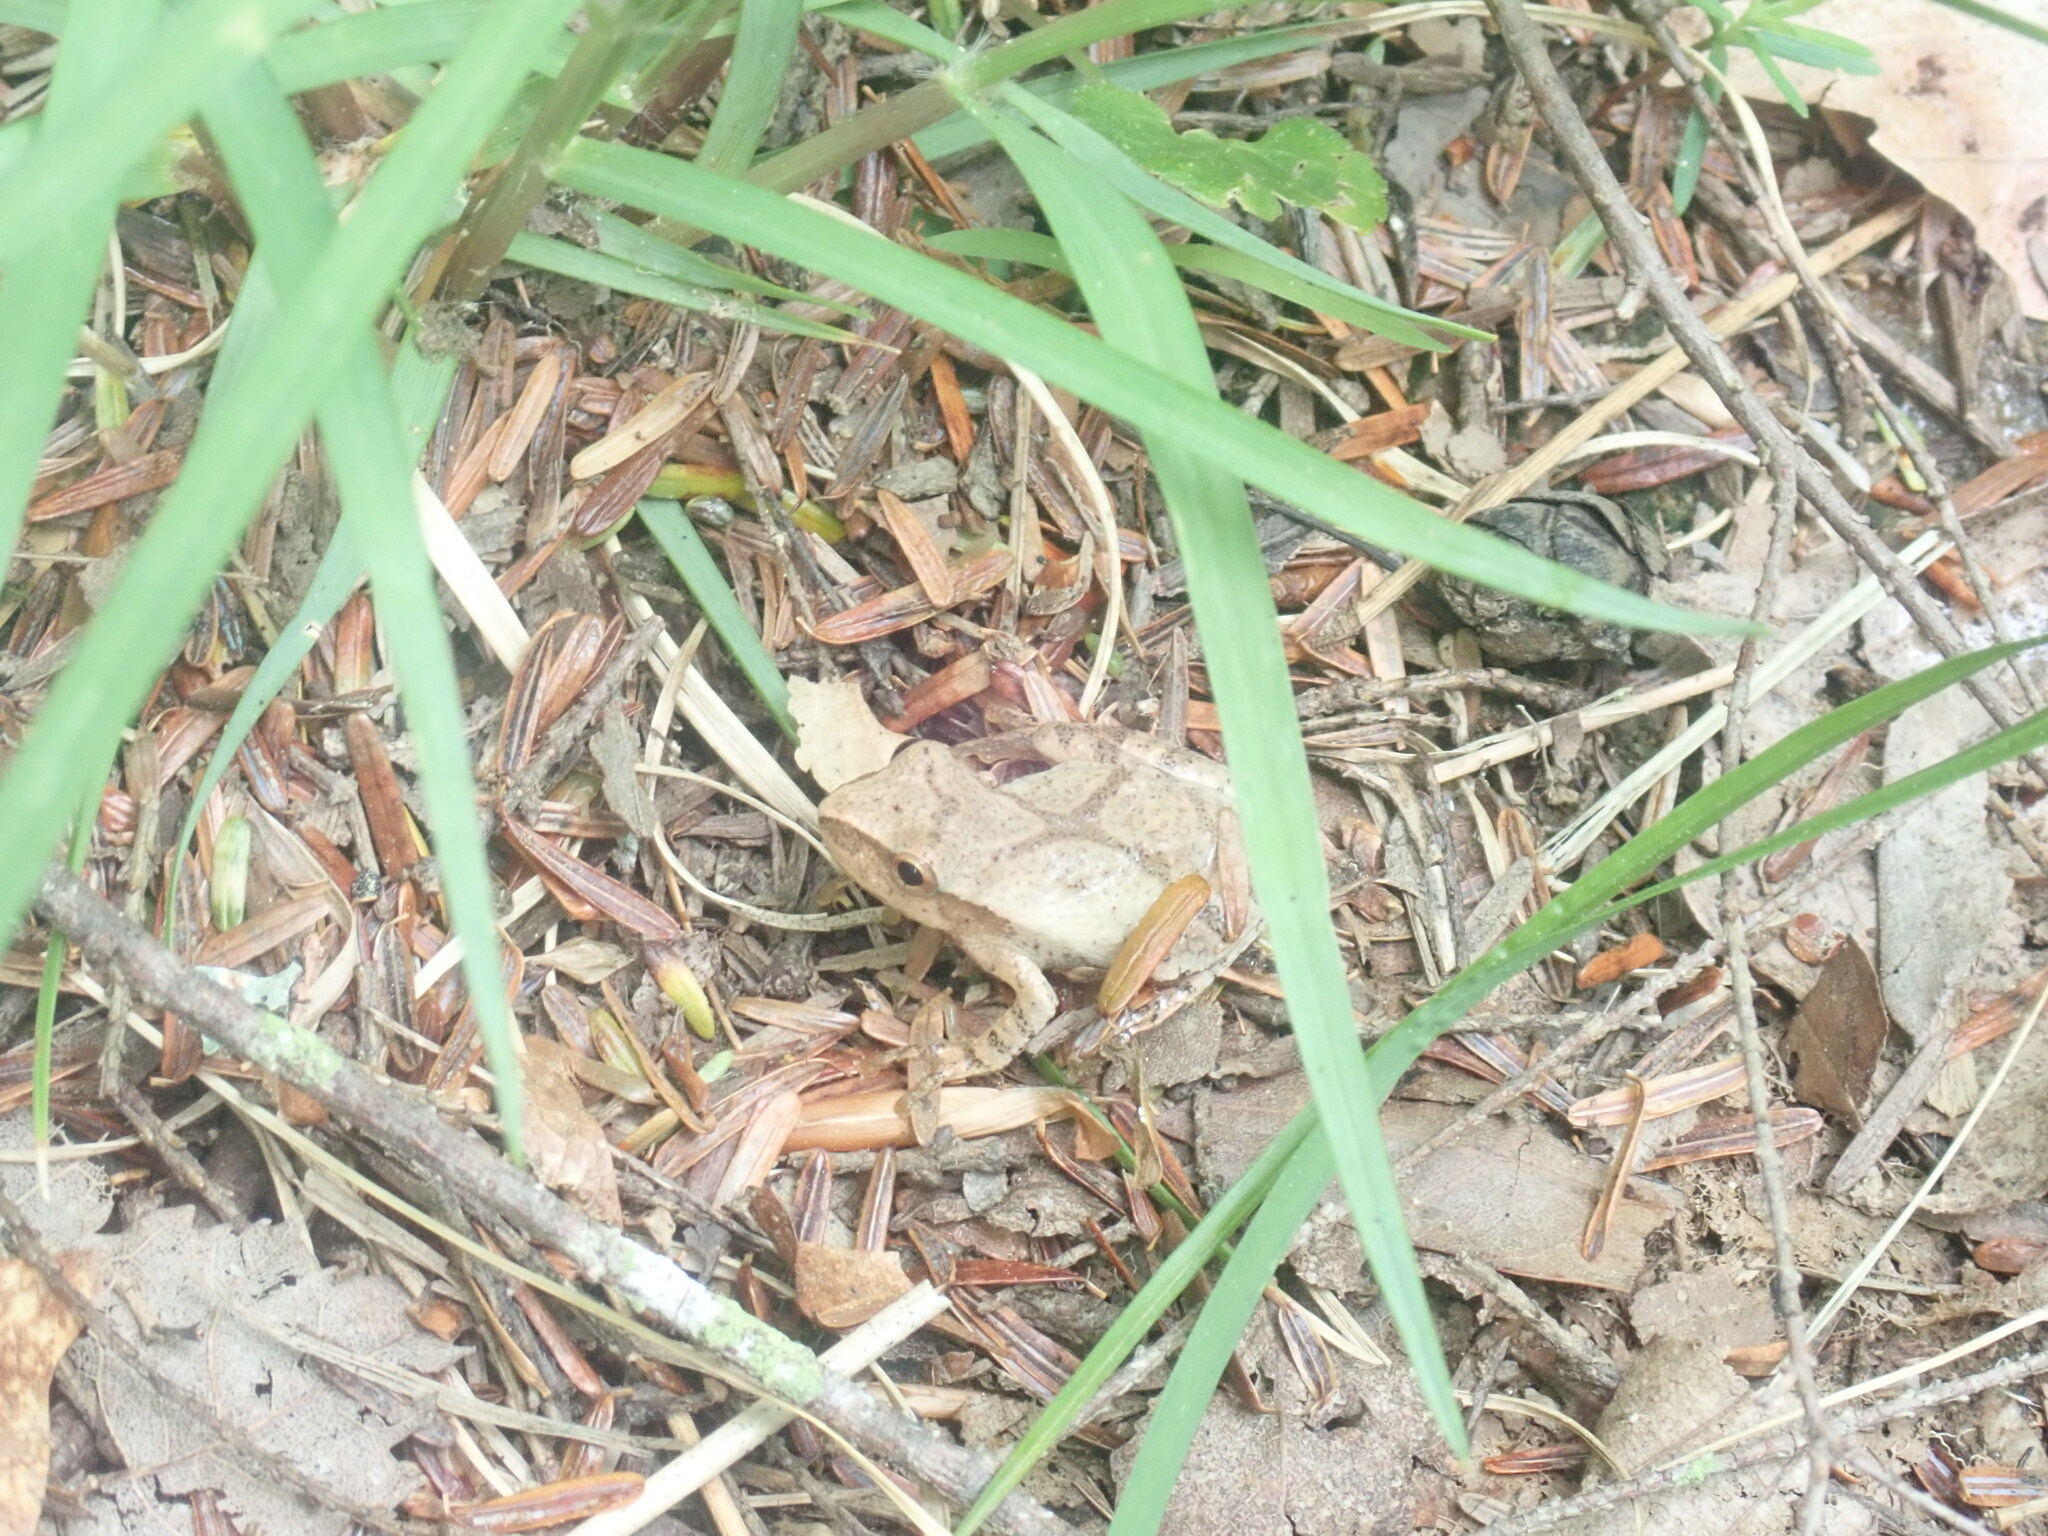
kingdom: Animalia
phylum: Chordata
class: Amphibia
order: Anura
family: Hylidae
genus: Pseudacris
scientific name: Pseudacris crucifer
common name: Spring peeper
